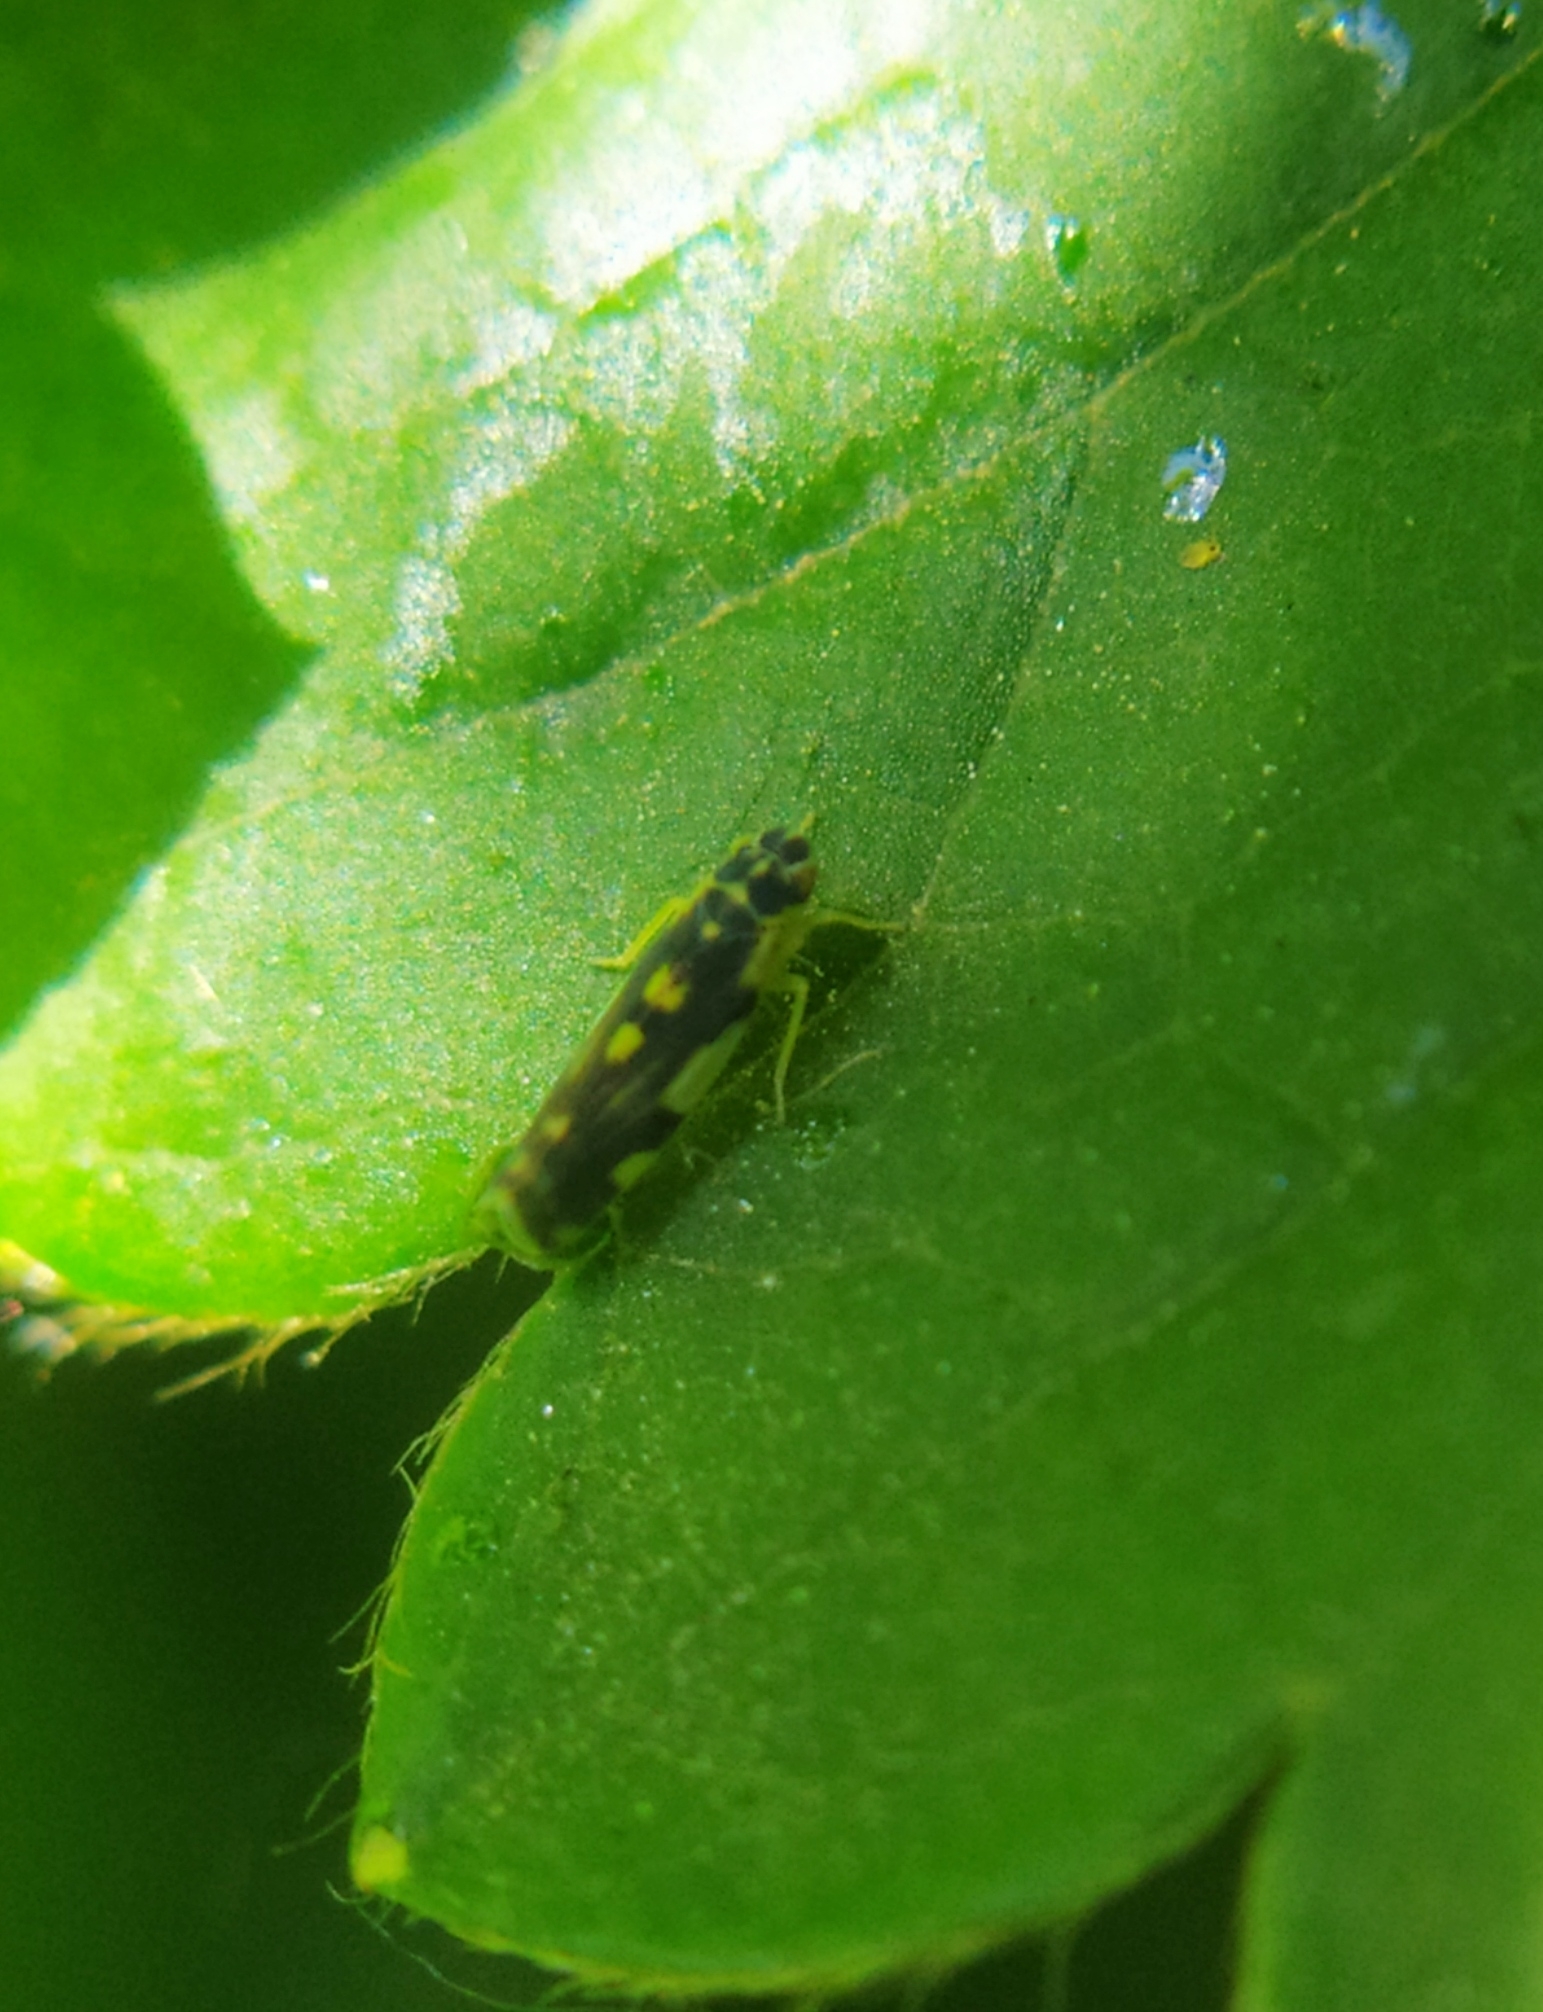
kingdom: Animalia
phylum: Arthropoda
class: Insecta
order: Hemiptera
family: Cicadellidae
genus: Eupteryx
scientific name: Eupteryx aurata
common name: Leafhopper
